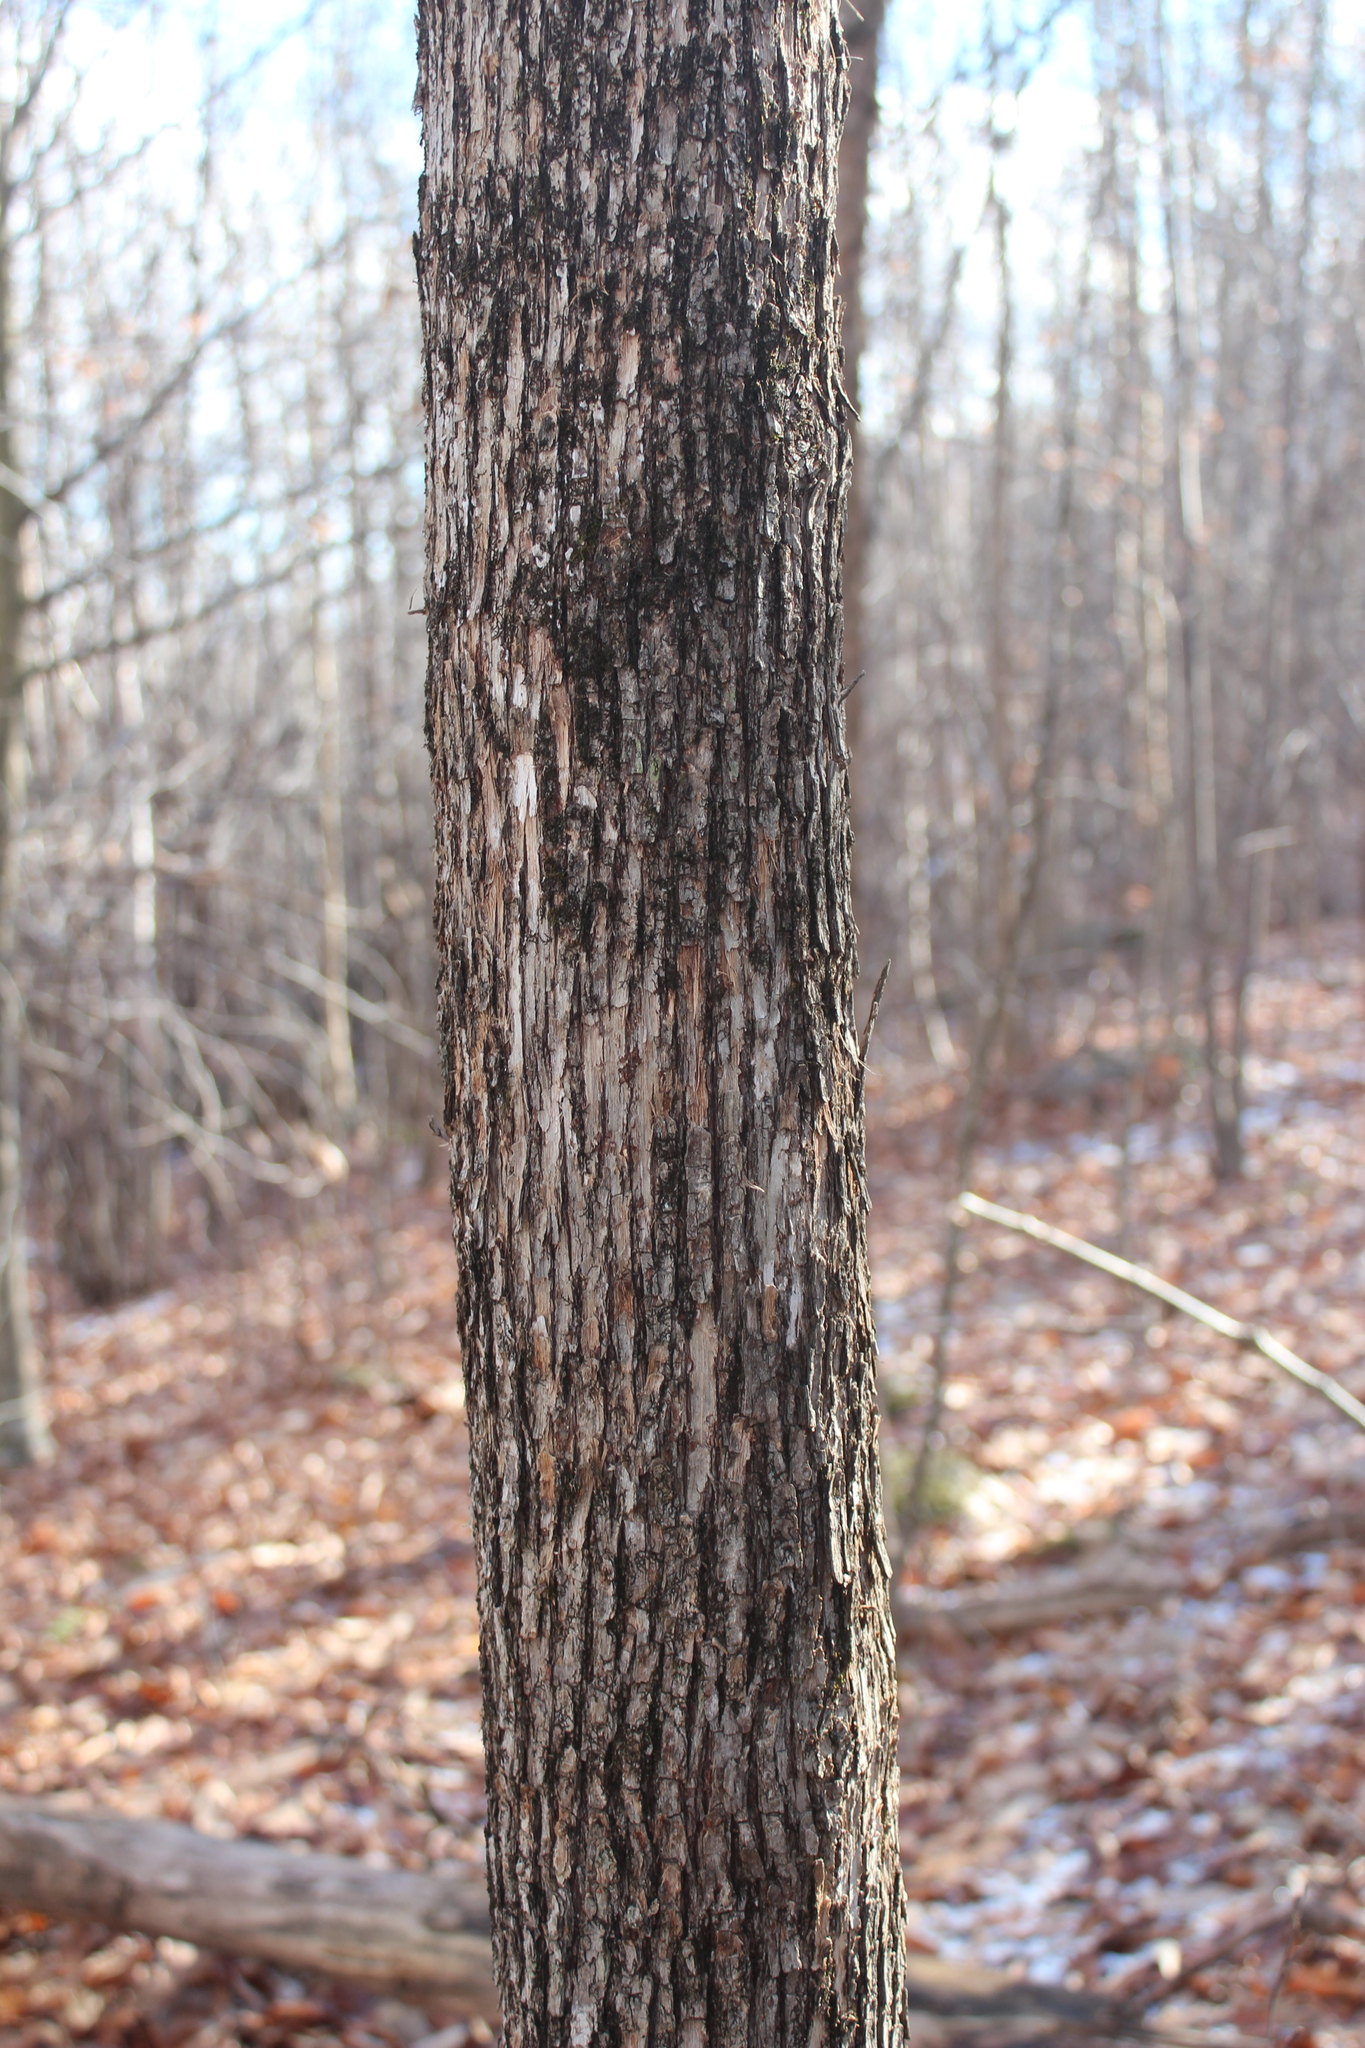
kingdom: Plantae
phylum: Tracheophyta
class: Magnoliopsida
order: Fagales
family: Betulaceae
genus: Ostrya
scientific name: Ostrya virginiana
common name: Ironwood
